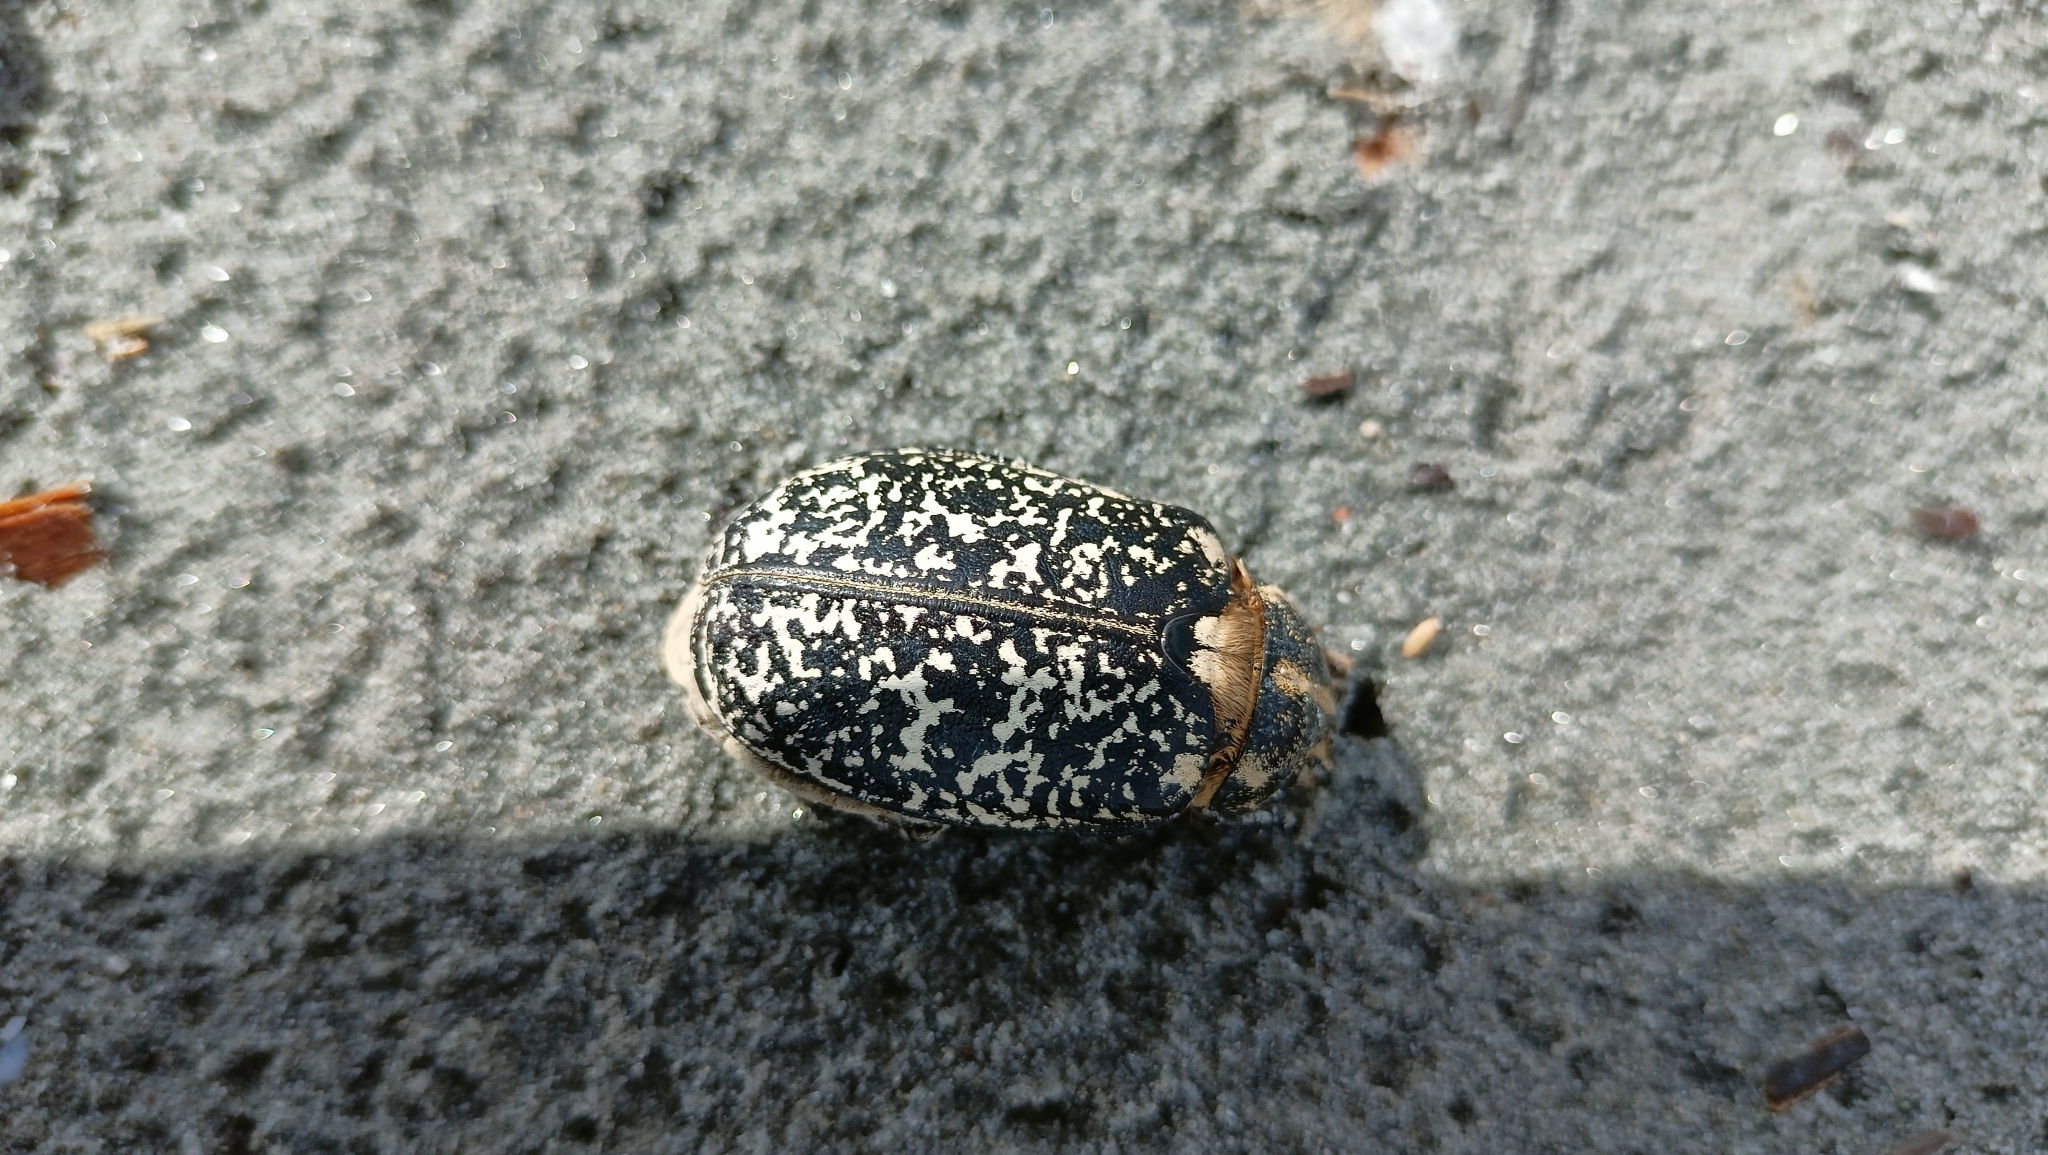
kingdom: Animalia
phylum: Arthropoda
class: Insecta
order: Coleoptera
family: Scarabaeidae
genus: Polyphylla
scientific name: Polyphylla fullo
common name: Pine chafer
